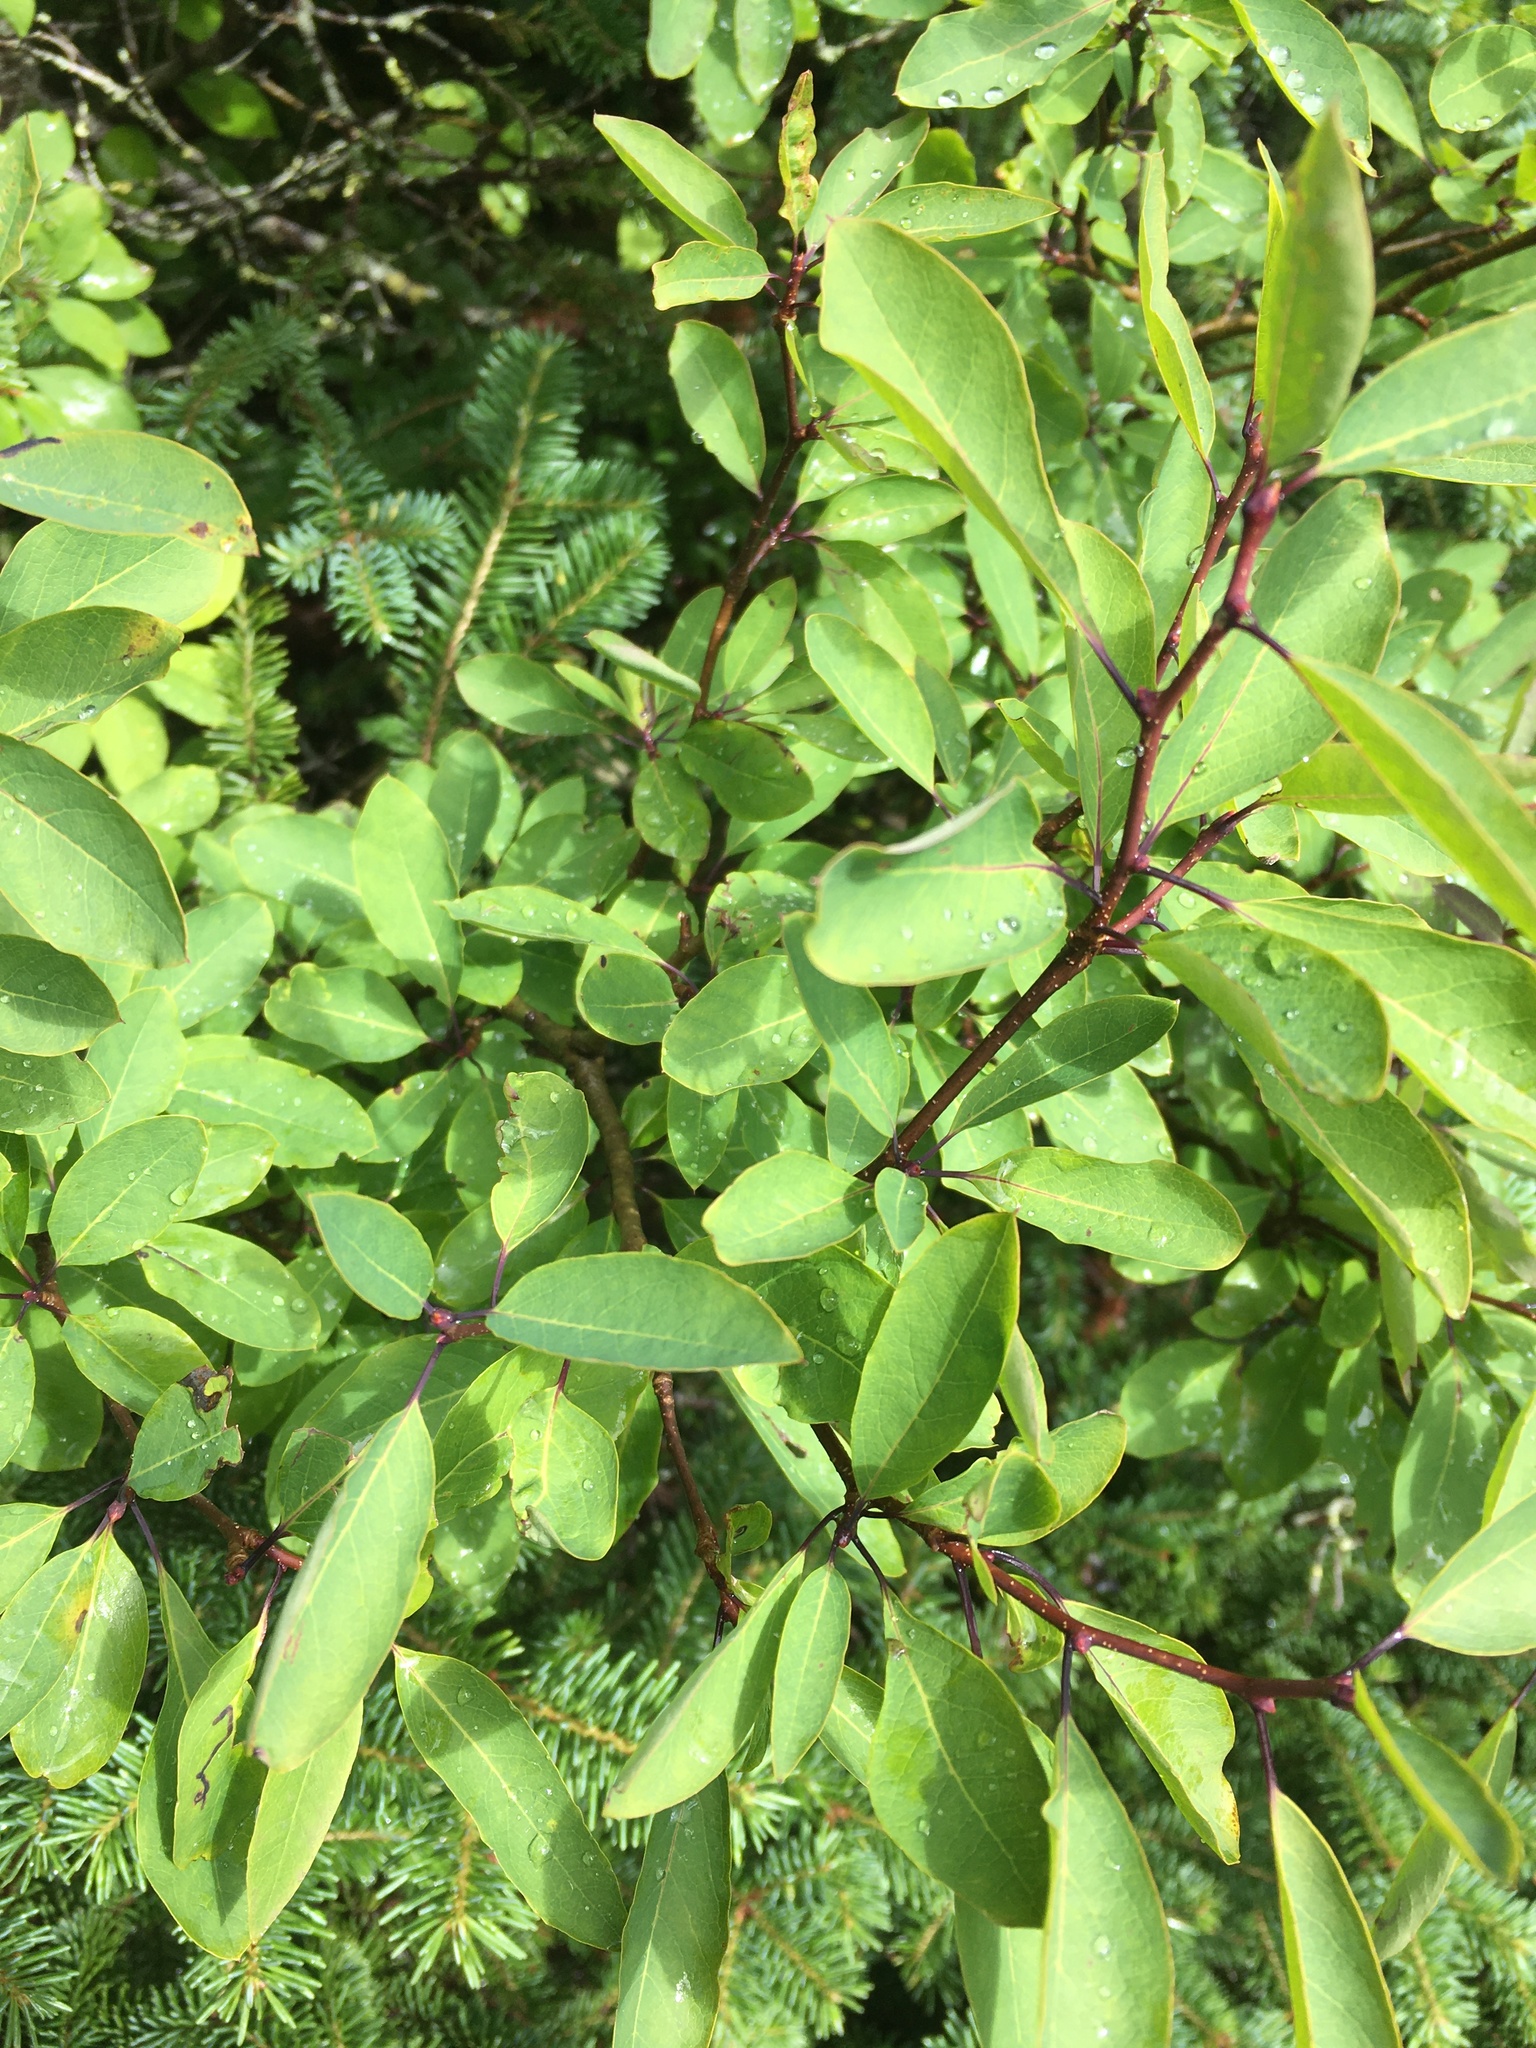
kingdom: Plantae
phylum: Tracheophyta
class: Magnoliopsida
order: Aquifoliales
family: Aquifoliaceae
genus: Ilex
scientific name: Ilex mucronata
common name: Catberry
